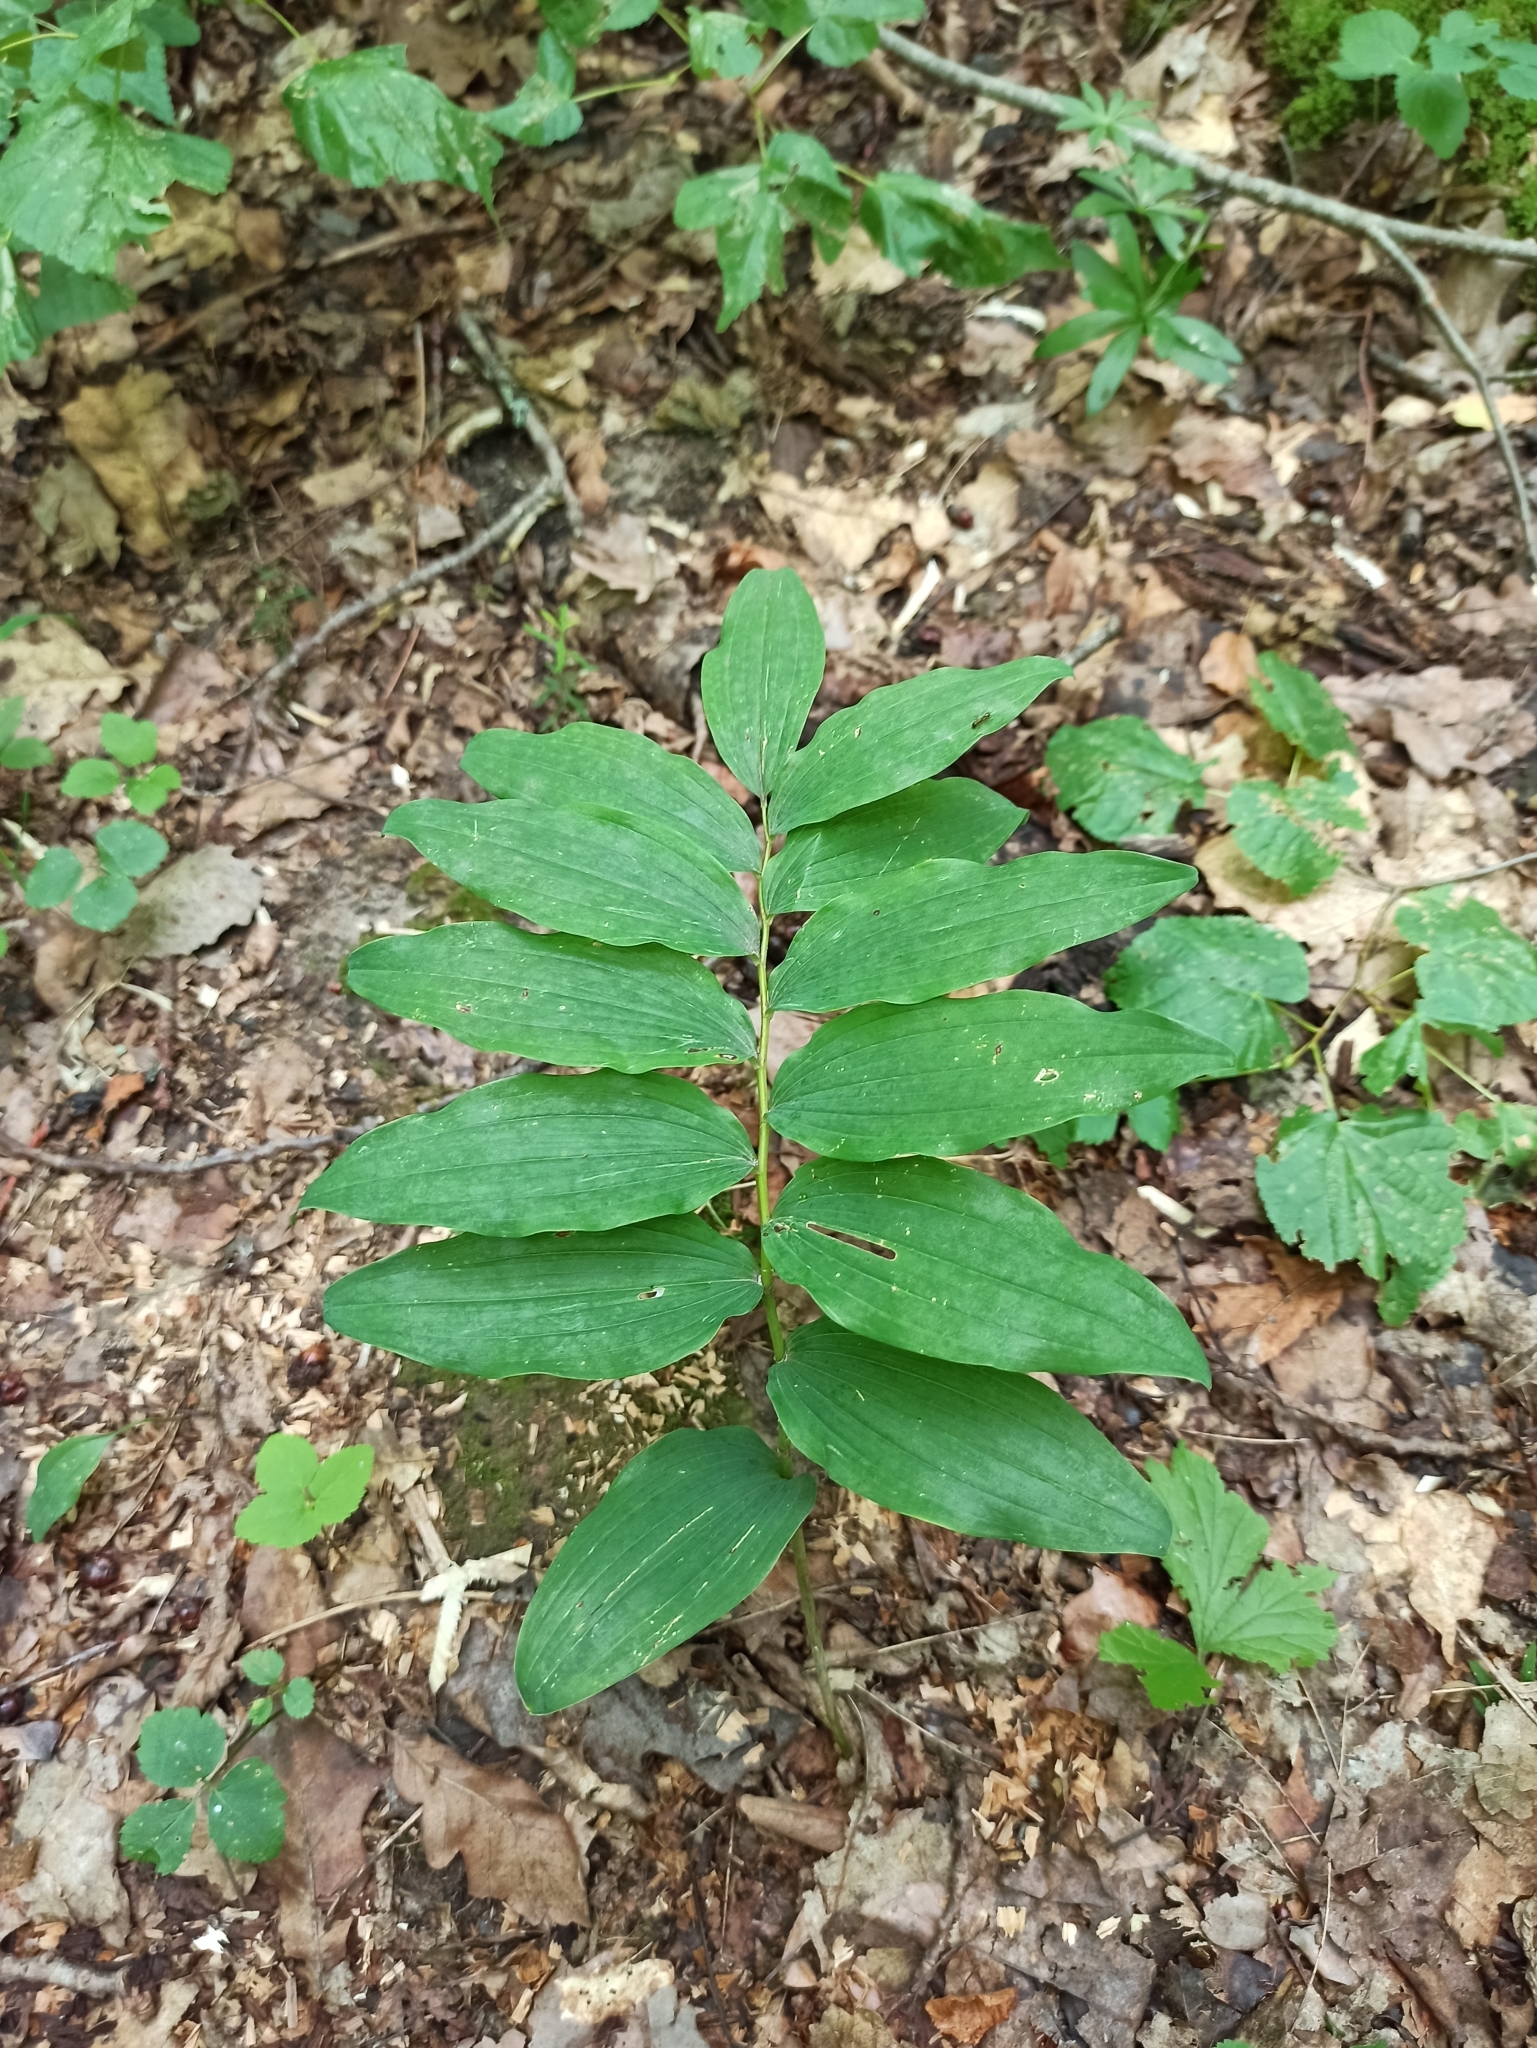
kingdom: Plantae
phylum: Tracheophyta
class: Liliopsida
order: Asparagales
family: Asparagaceae
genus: Polygonatum
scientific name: Polygonatum multiflorum
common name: Solomon's-seal
